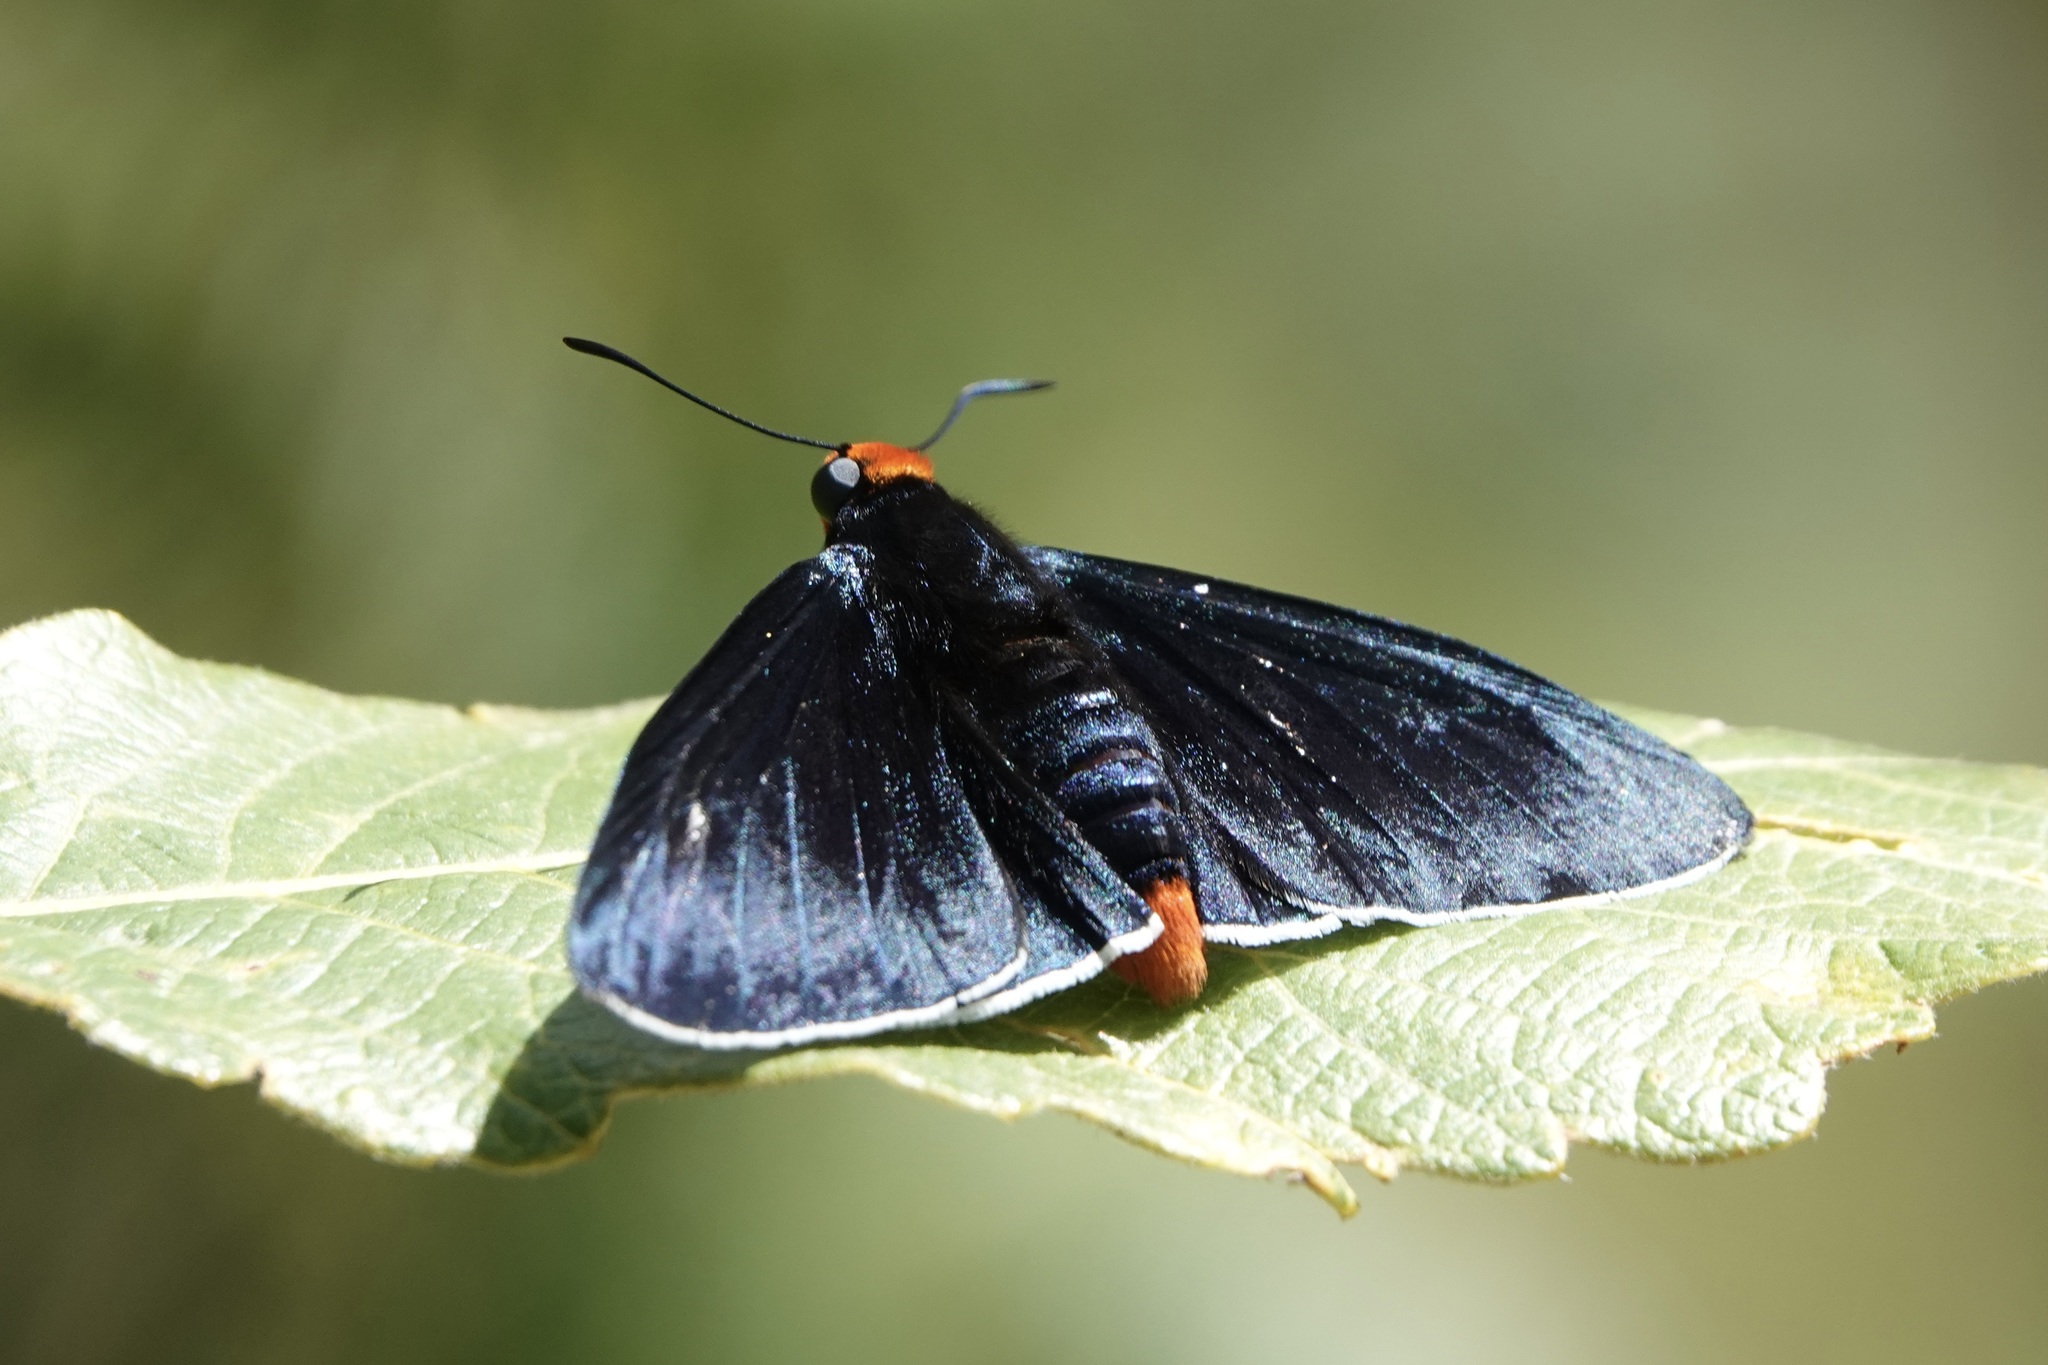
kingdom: Animalia
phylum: Arthropoda
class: Insecta
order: Lepidoptera
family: Hesperiidae
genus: Pyrrhopyge
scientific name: Pyrrhopyge phidias
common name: Original firetip
